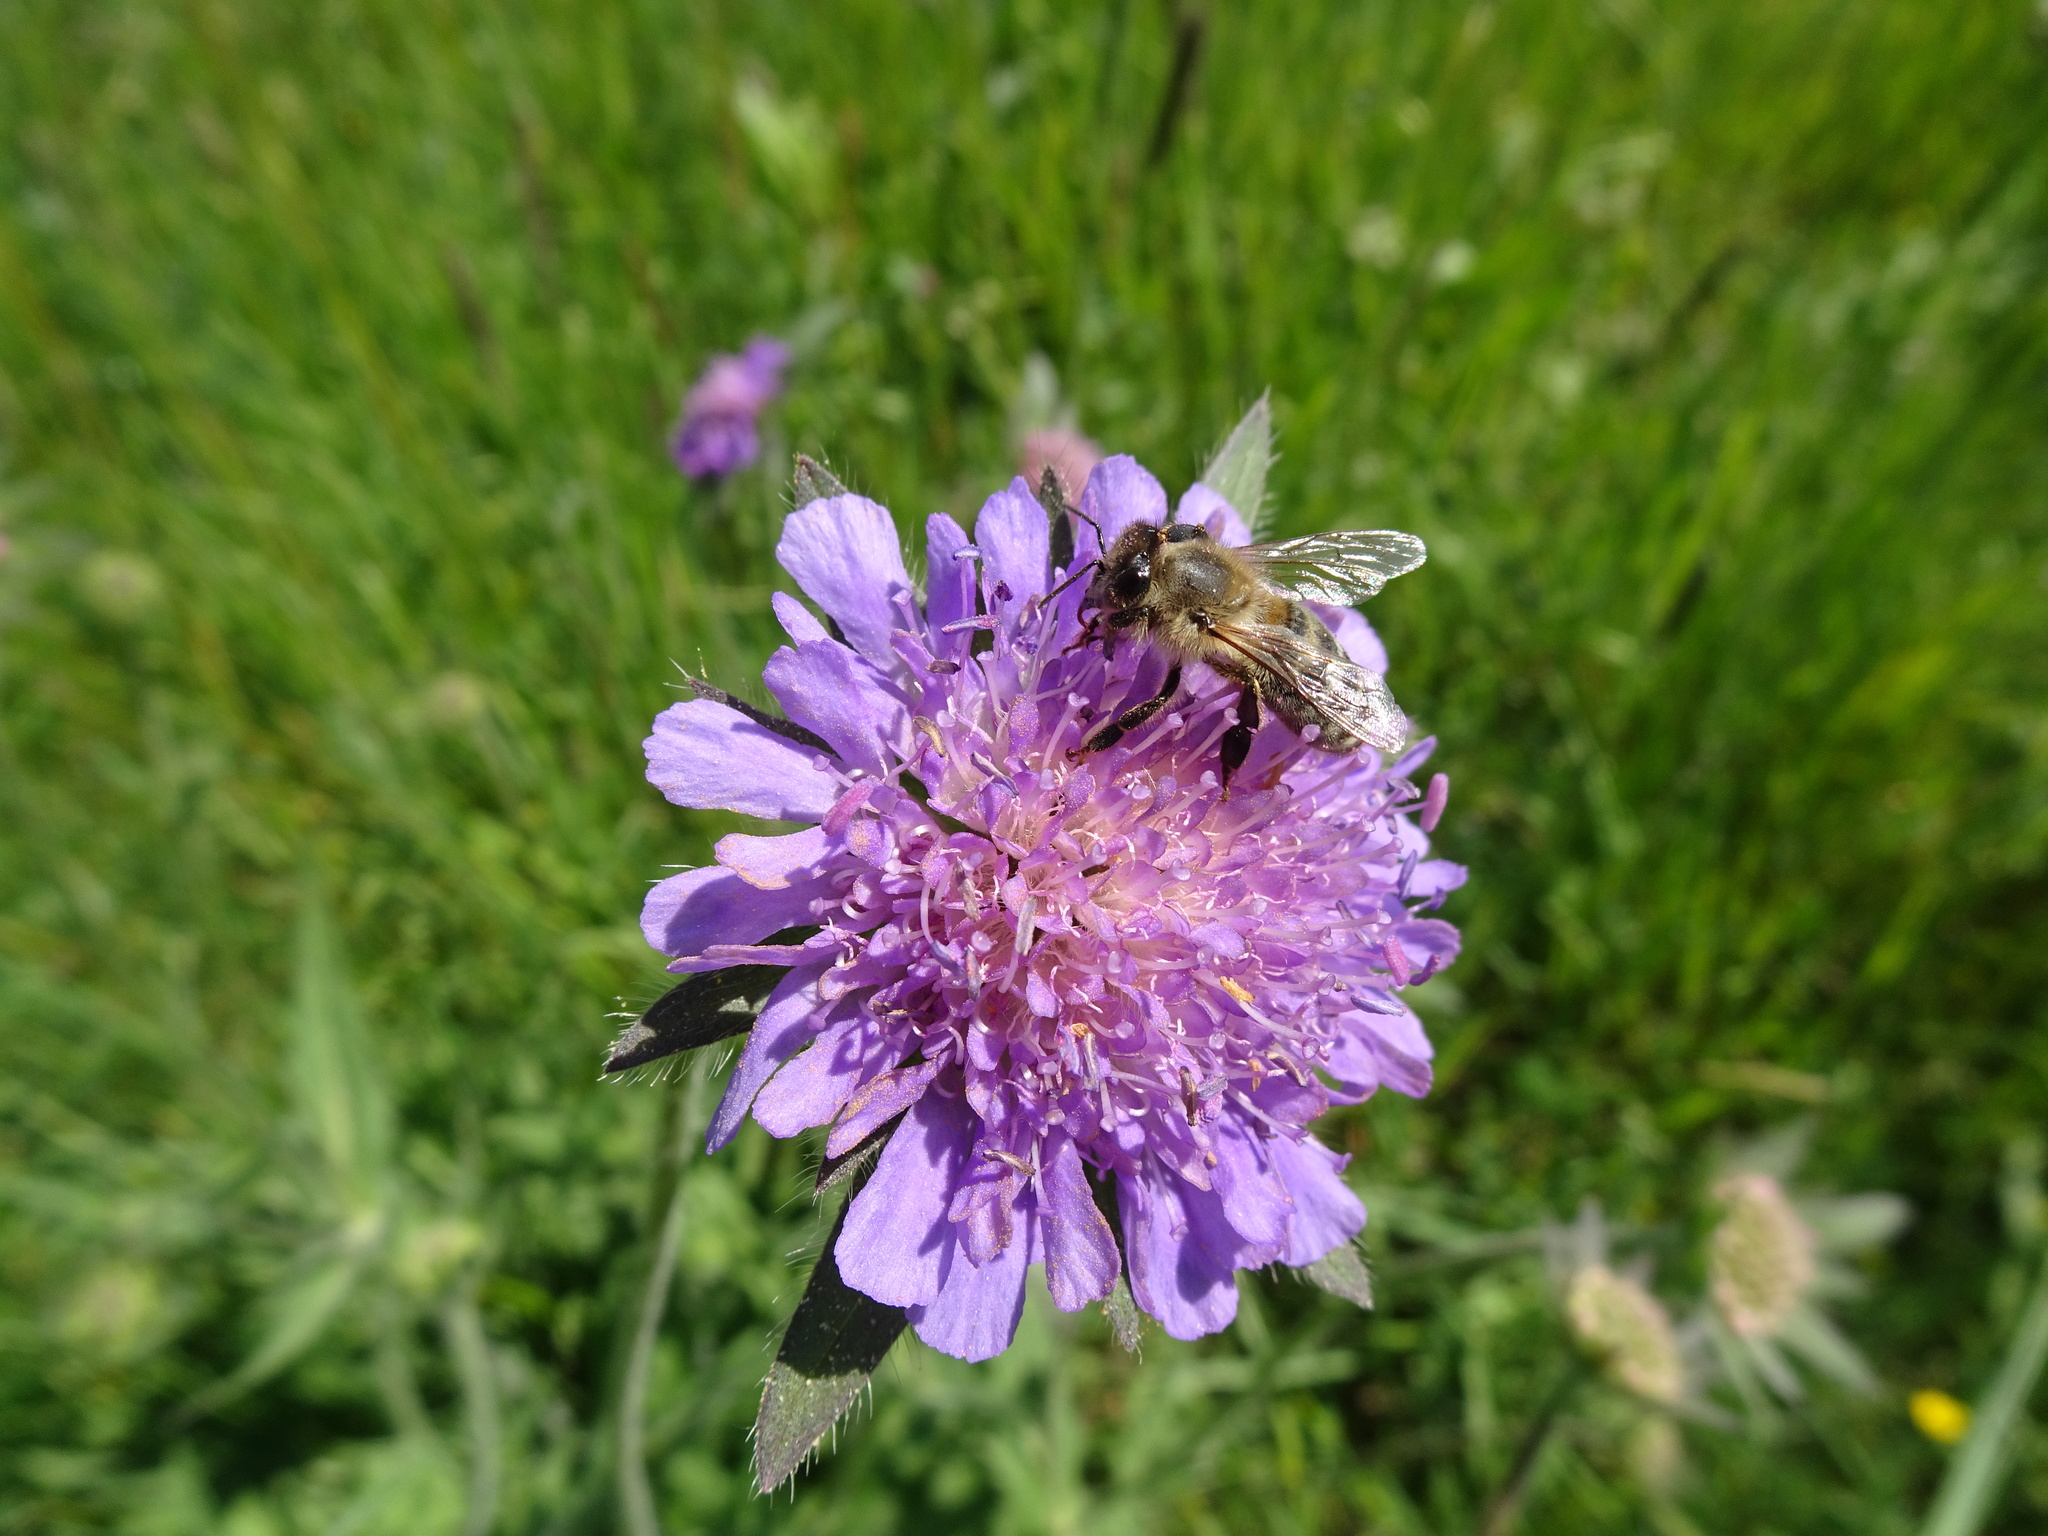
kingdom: Plantae
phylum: Tracheophyta
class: Magnoliopsida
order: Dipsacales
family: Caprifoliaceae
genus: Knautia
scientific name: Knautia arvensis
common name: Field scabiosa
